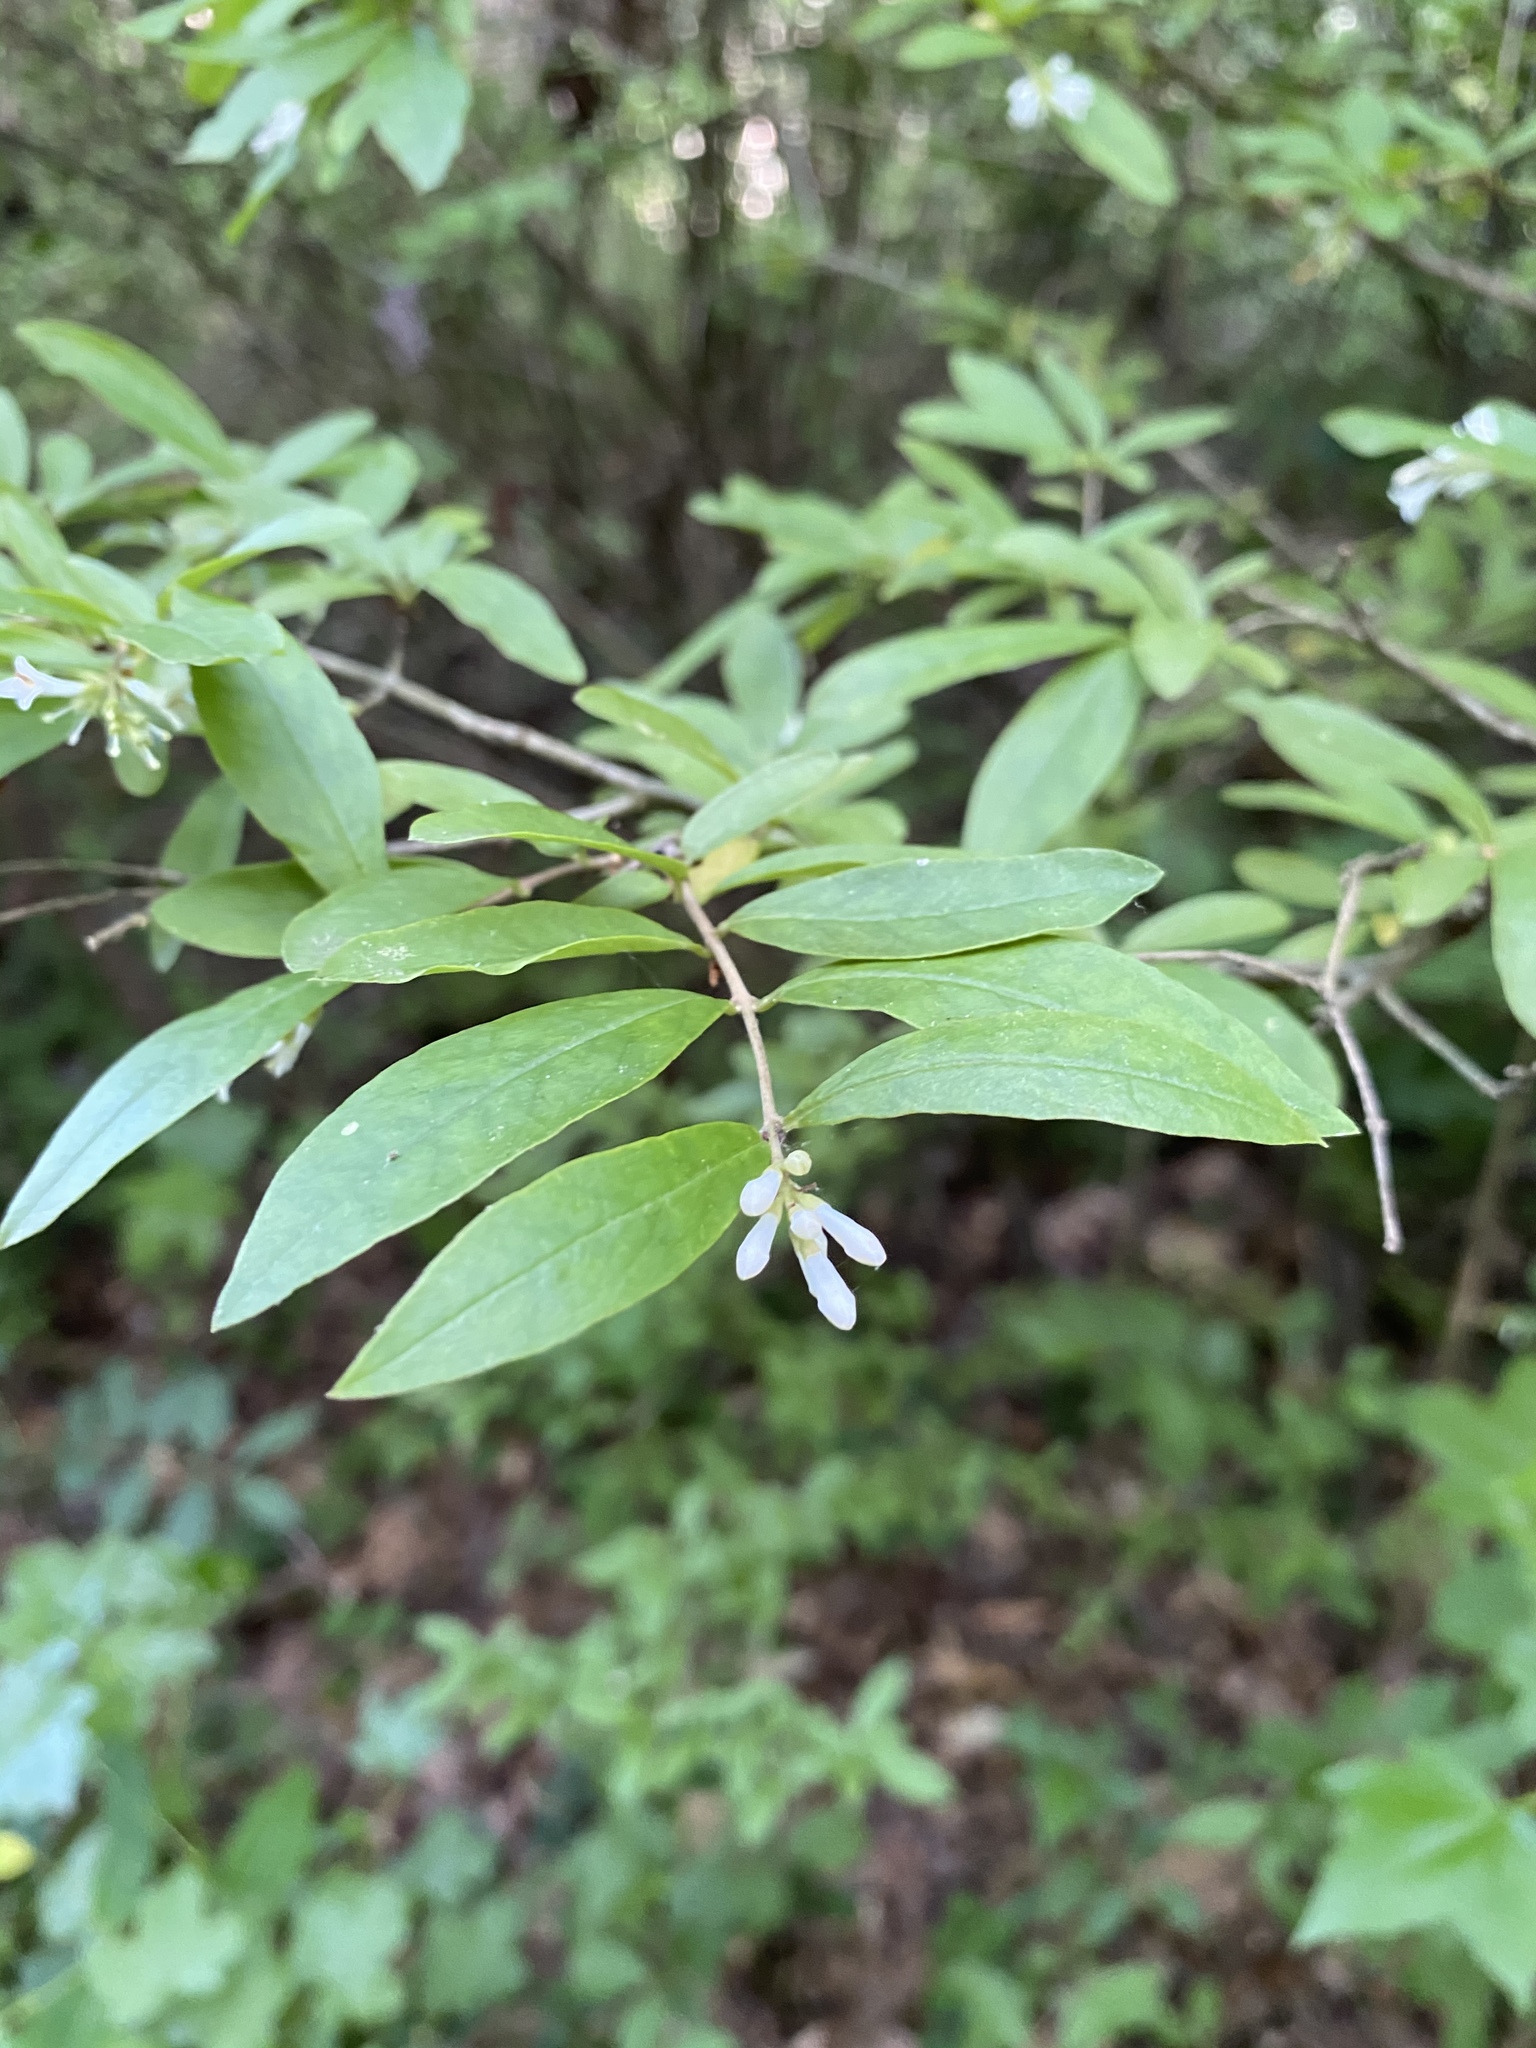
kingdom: Plantae
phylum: Tracheophyta
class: Magnoliopsida
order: Lamiales
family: Oleaceae
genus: Ligustrum
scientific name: Ligustrum obtusifolium
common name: Border privet
